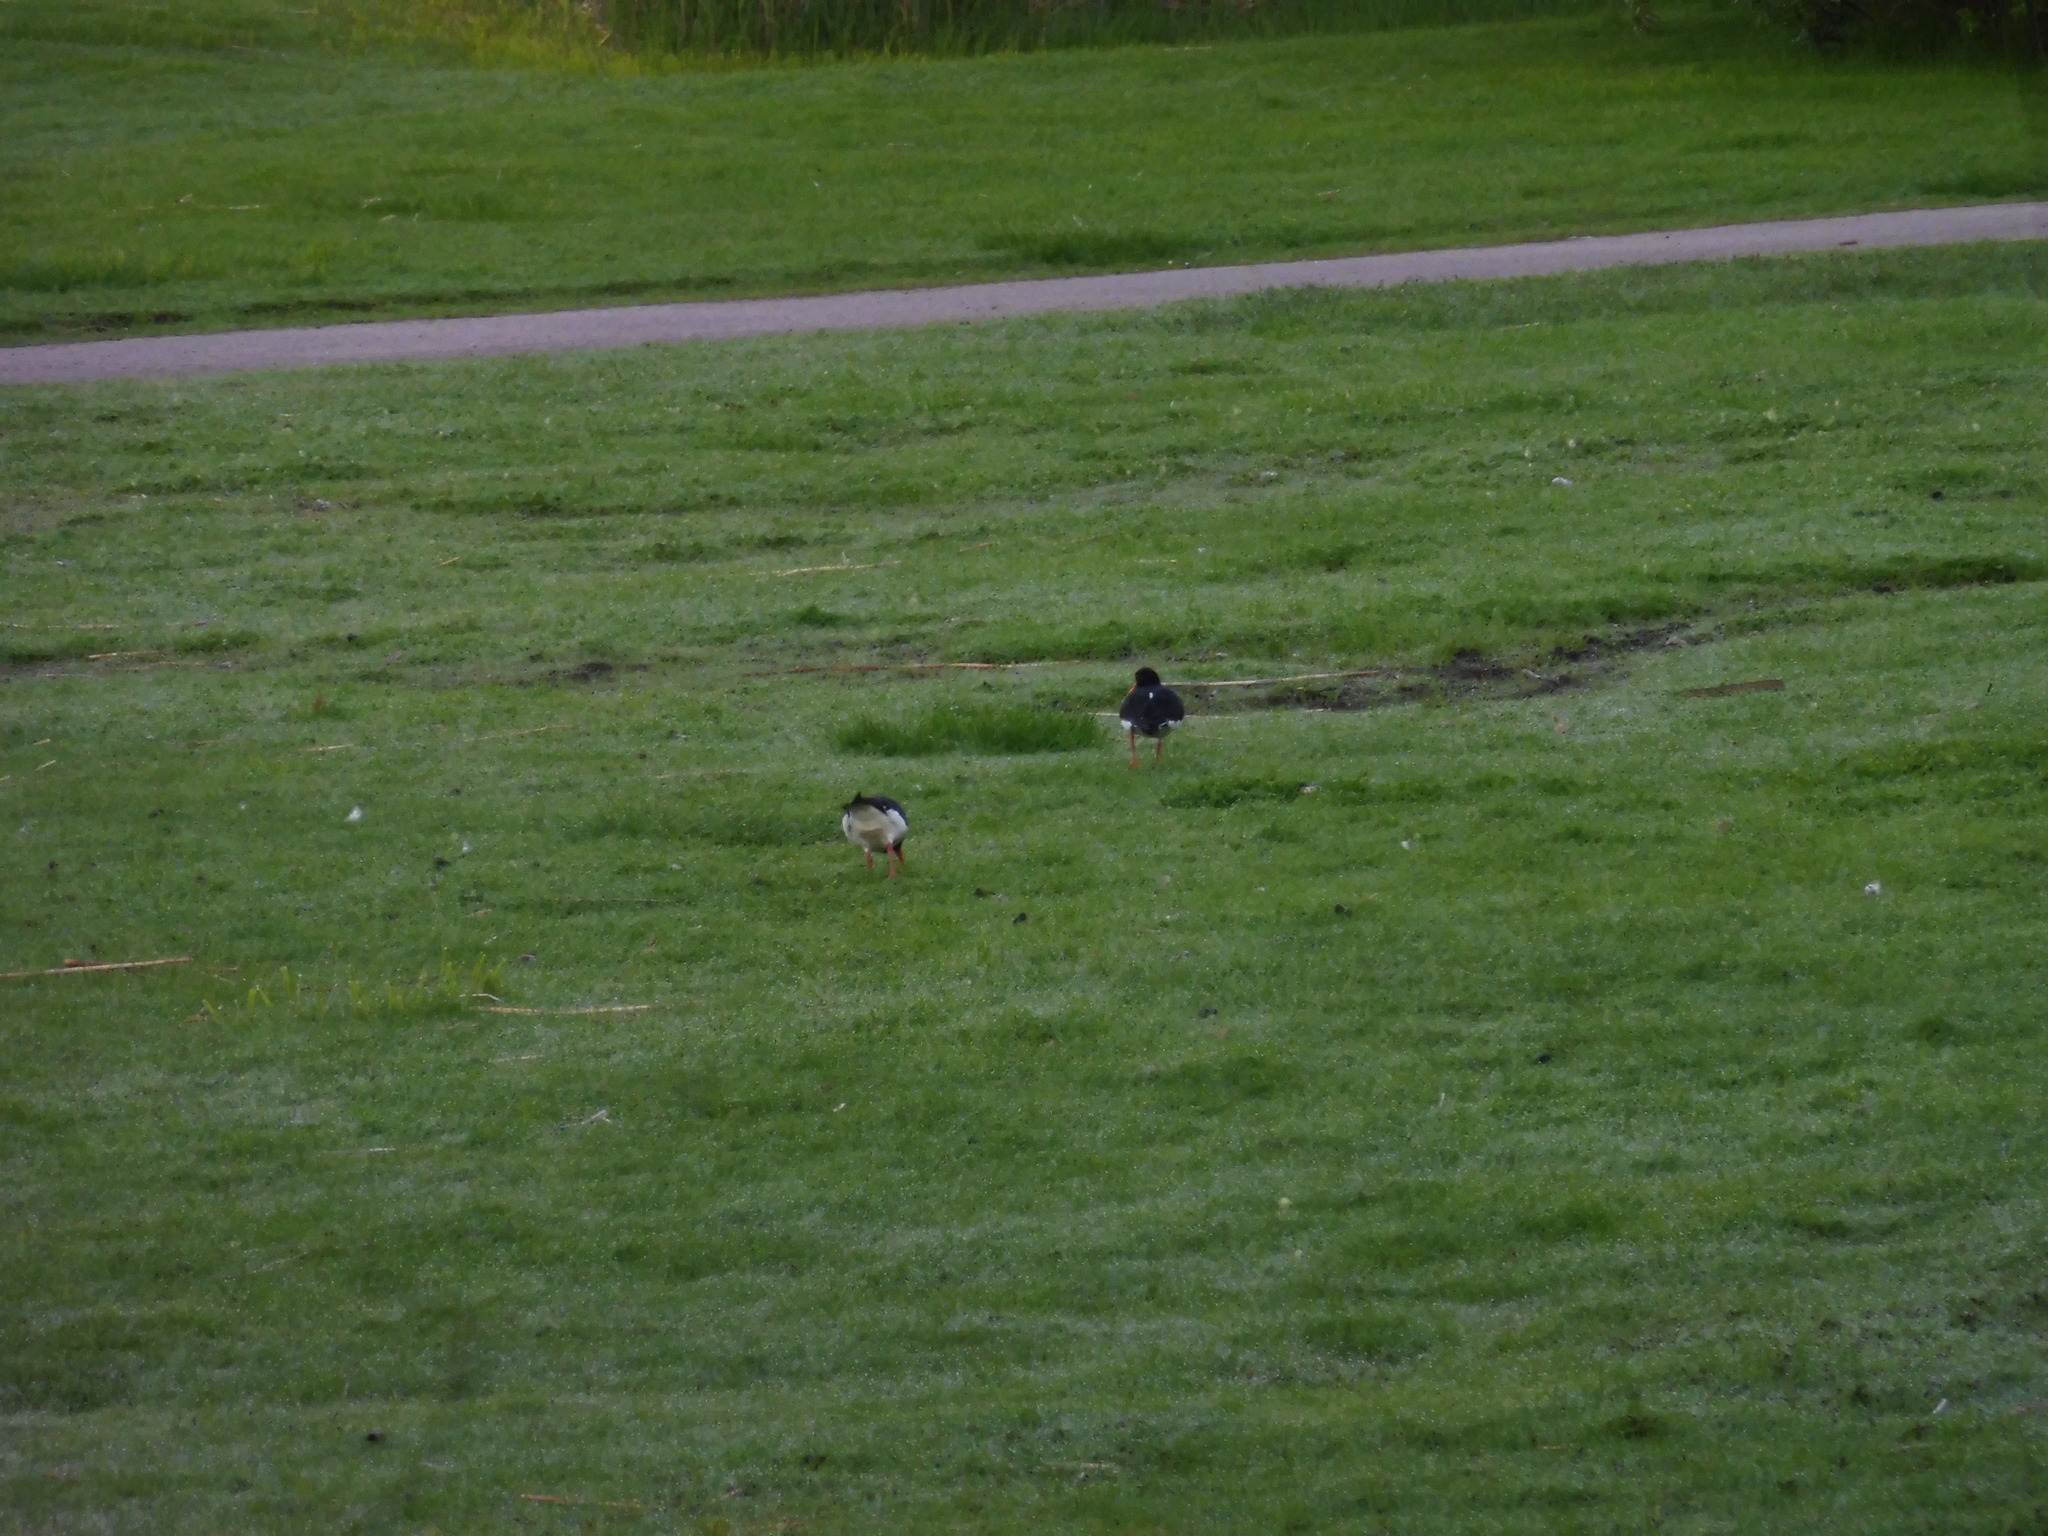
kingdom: Animalia
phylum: Chordata
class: Aves
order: Charadriiformes
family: Haematopodidae
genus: Haematopus
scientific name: Haematopus ostralegus
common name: Eurasian oystercatcher
